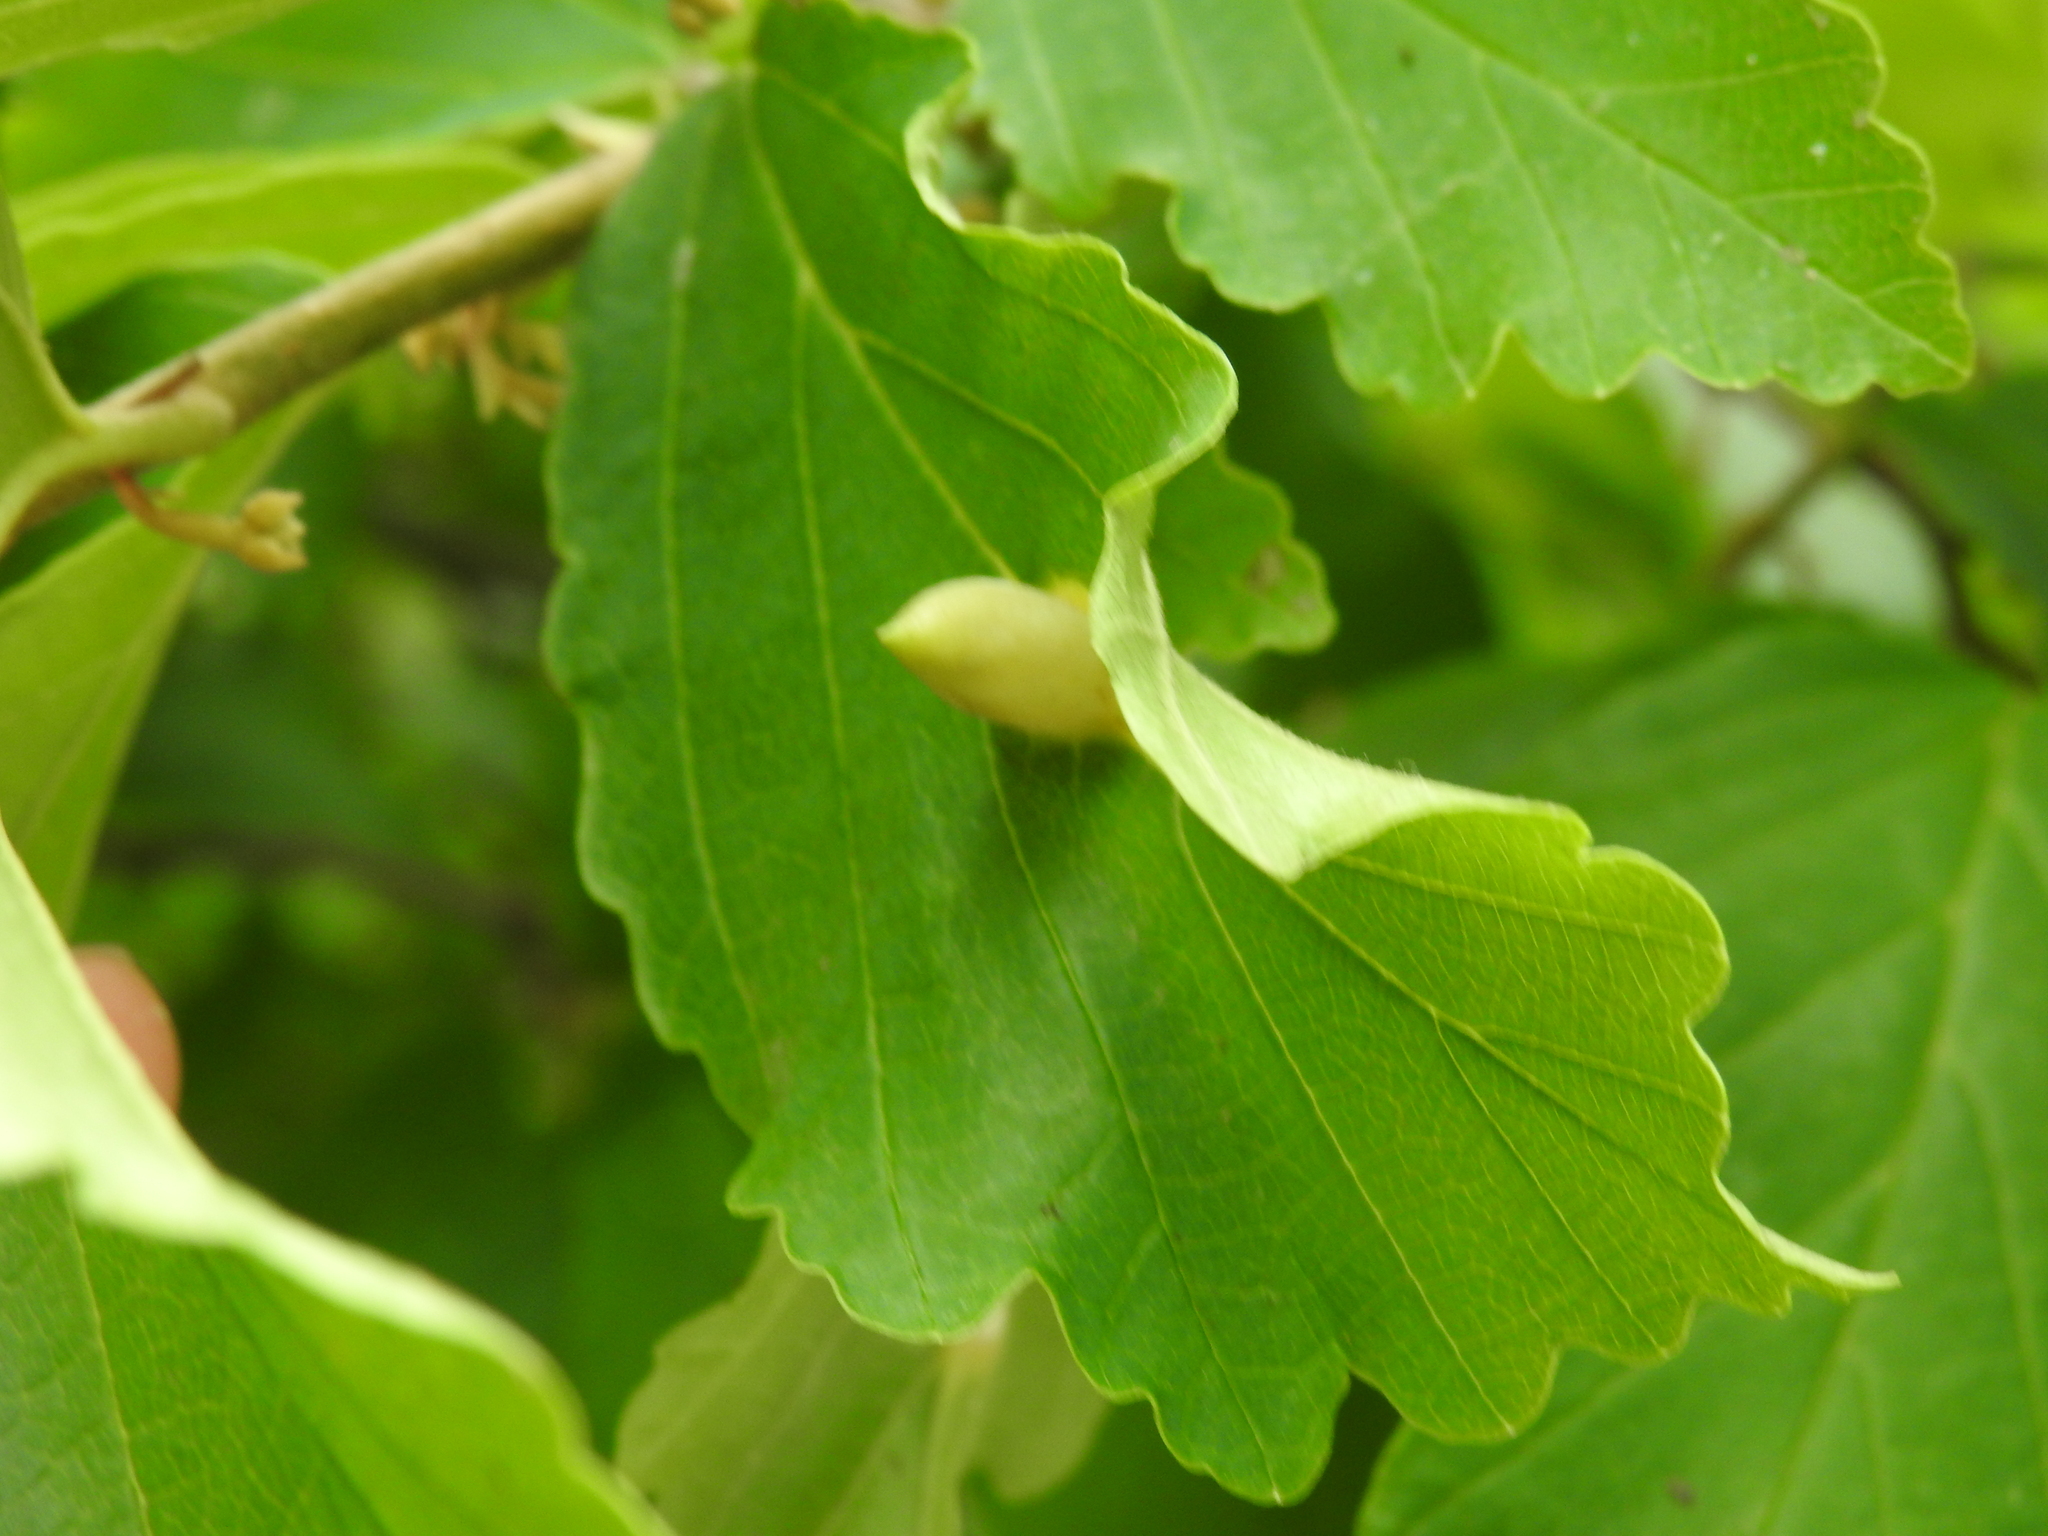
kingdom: Animalia
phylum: Arthropoda
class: Insecta
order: Hemiptera
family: Aphididae
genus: Hormaphis
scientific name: Hormaphis hamamelidis
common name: Witch-hazel cone gall aphid
